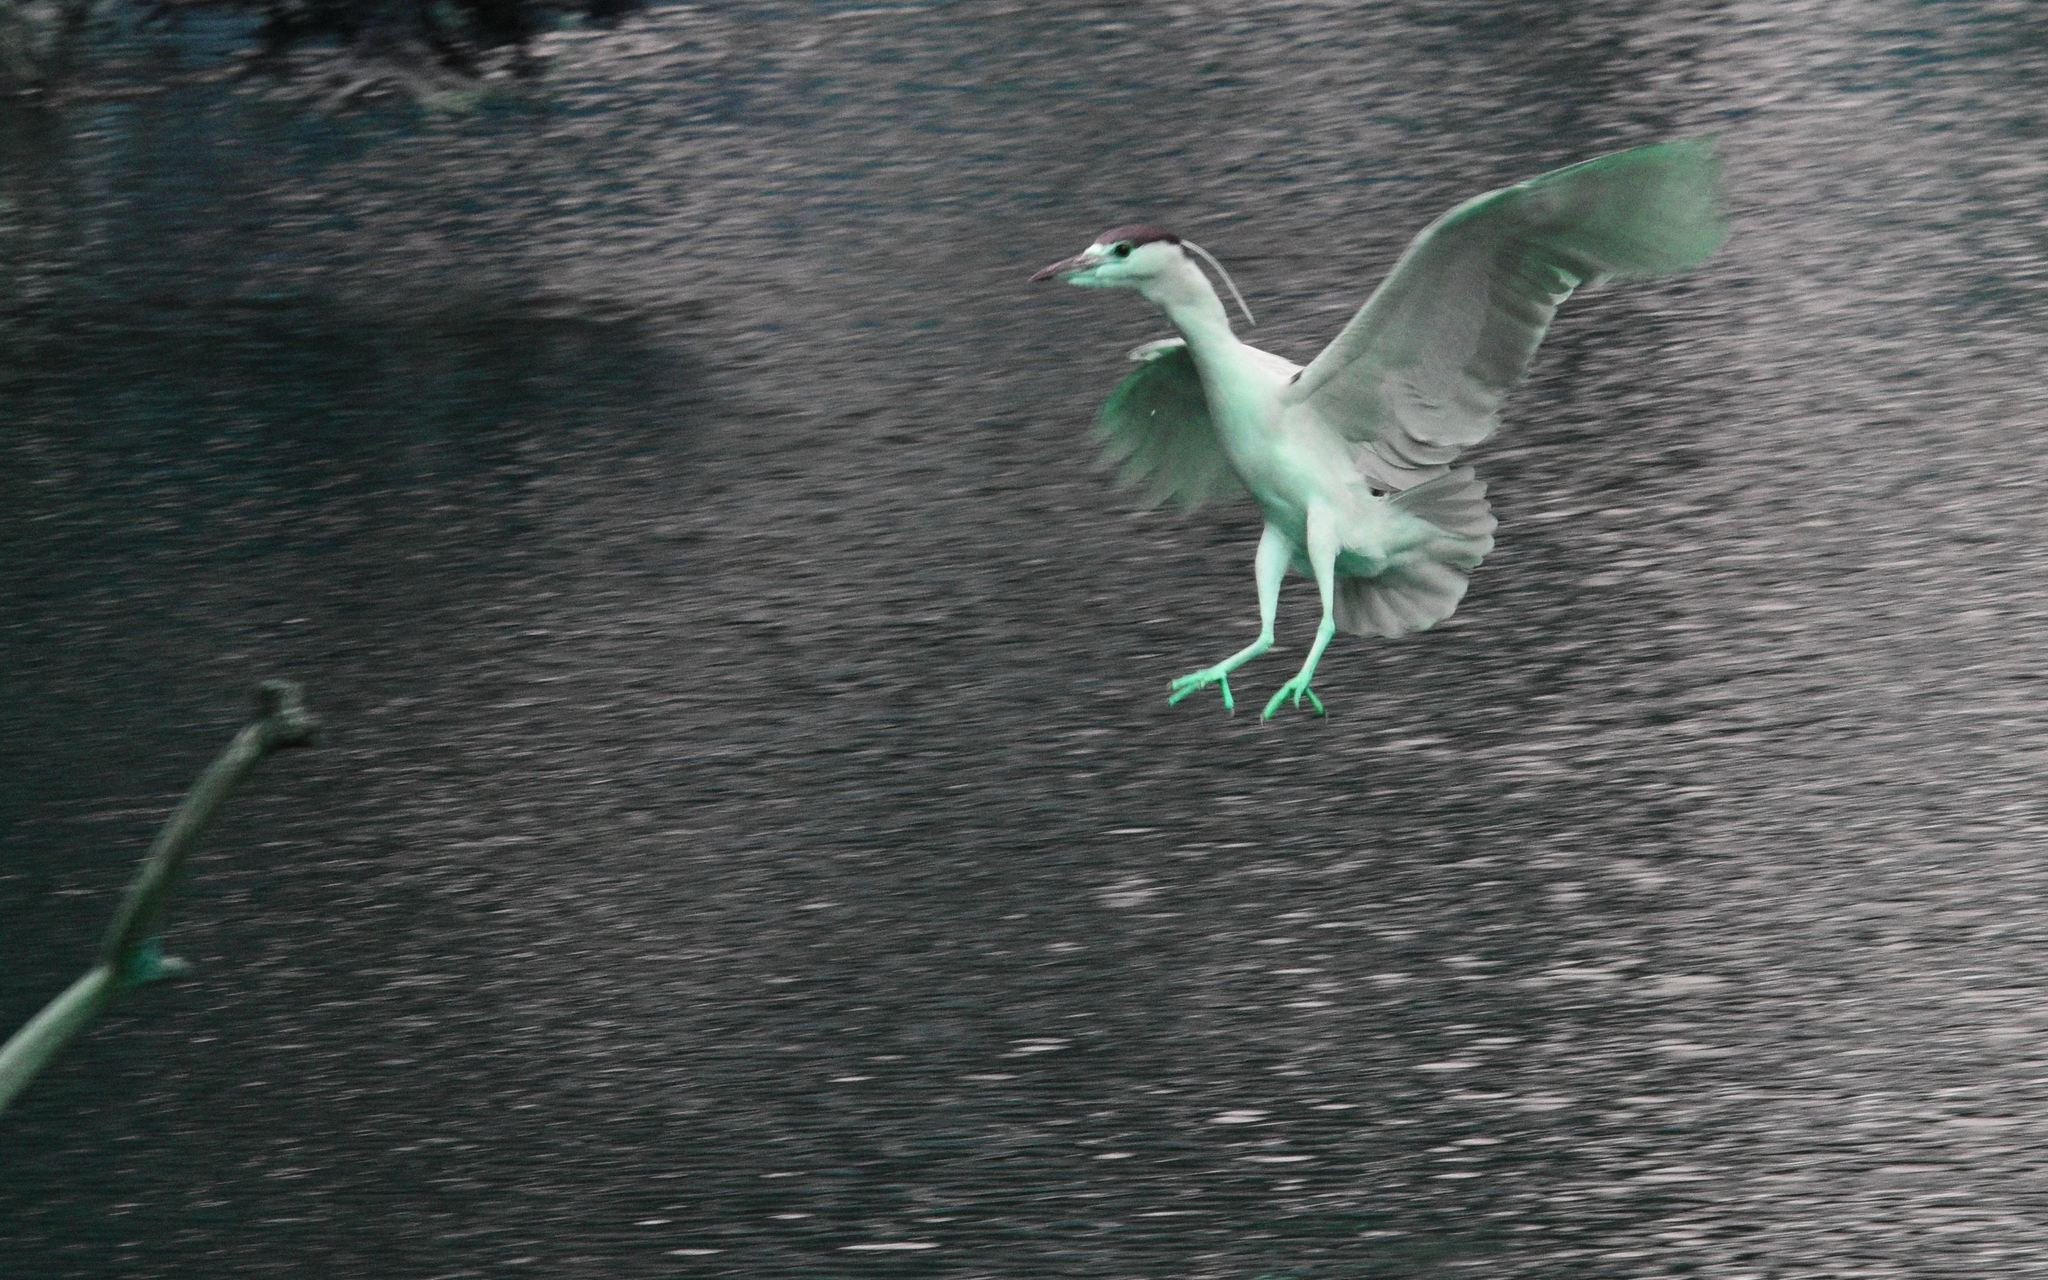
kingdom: Animalia
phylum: Chordata
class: Aves
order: Pelecaniformes
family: Ardeidae
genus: Nycticorax
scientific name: Nycticorax nycticorax
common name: Black-crowned night heron
